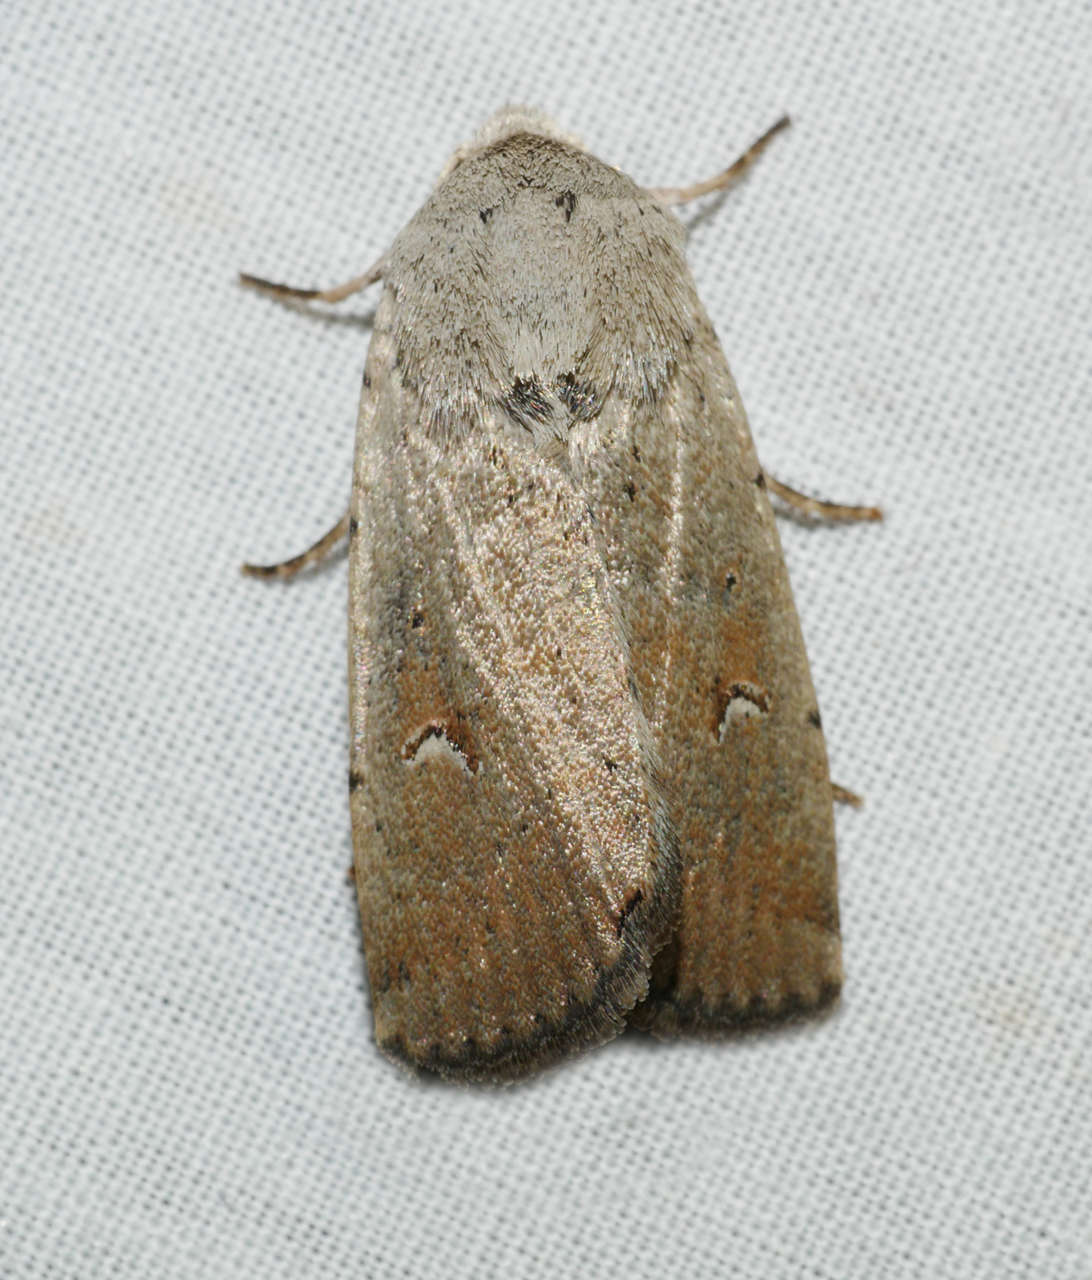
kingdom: Animalia
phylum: Arthropoda
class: Insecta
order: Lepidoptera
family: Noctuidae
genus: Proteuxoa
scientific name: Proteuxoa paratorna
